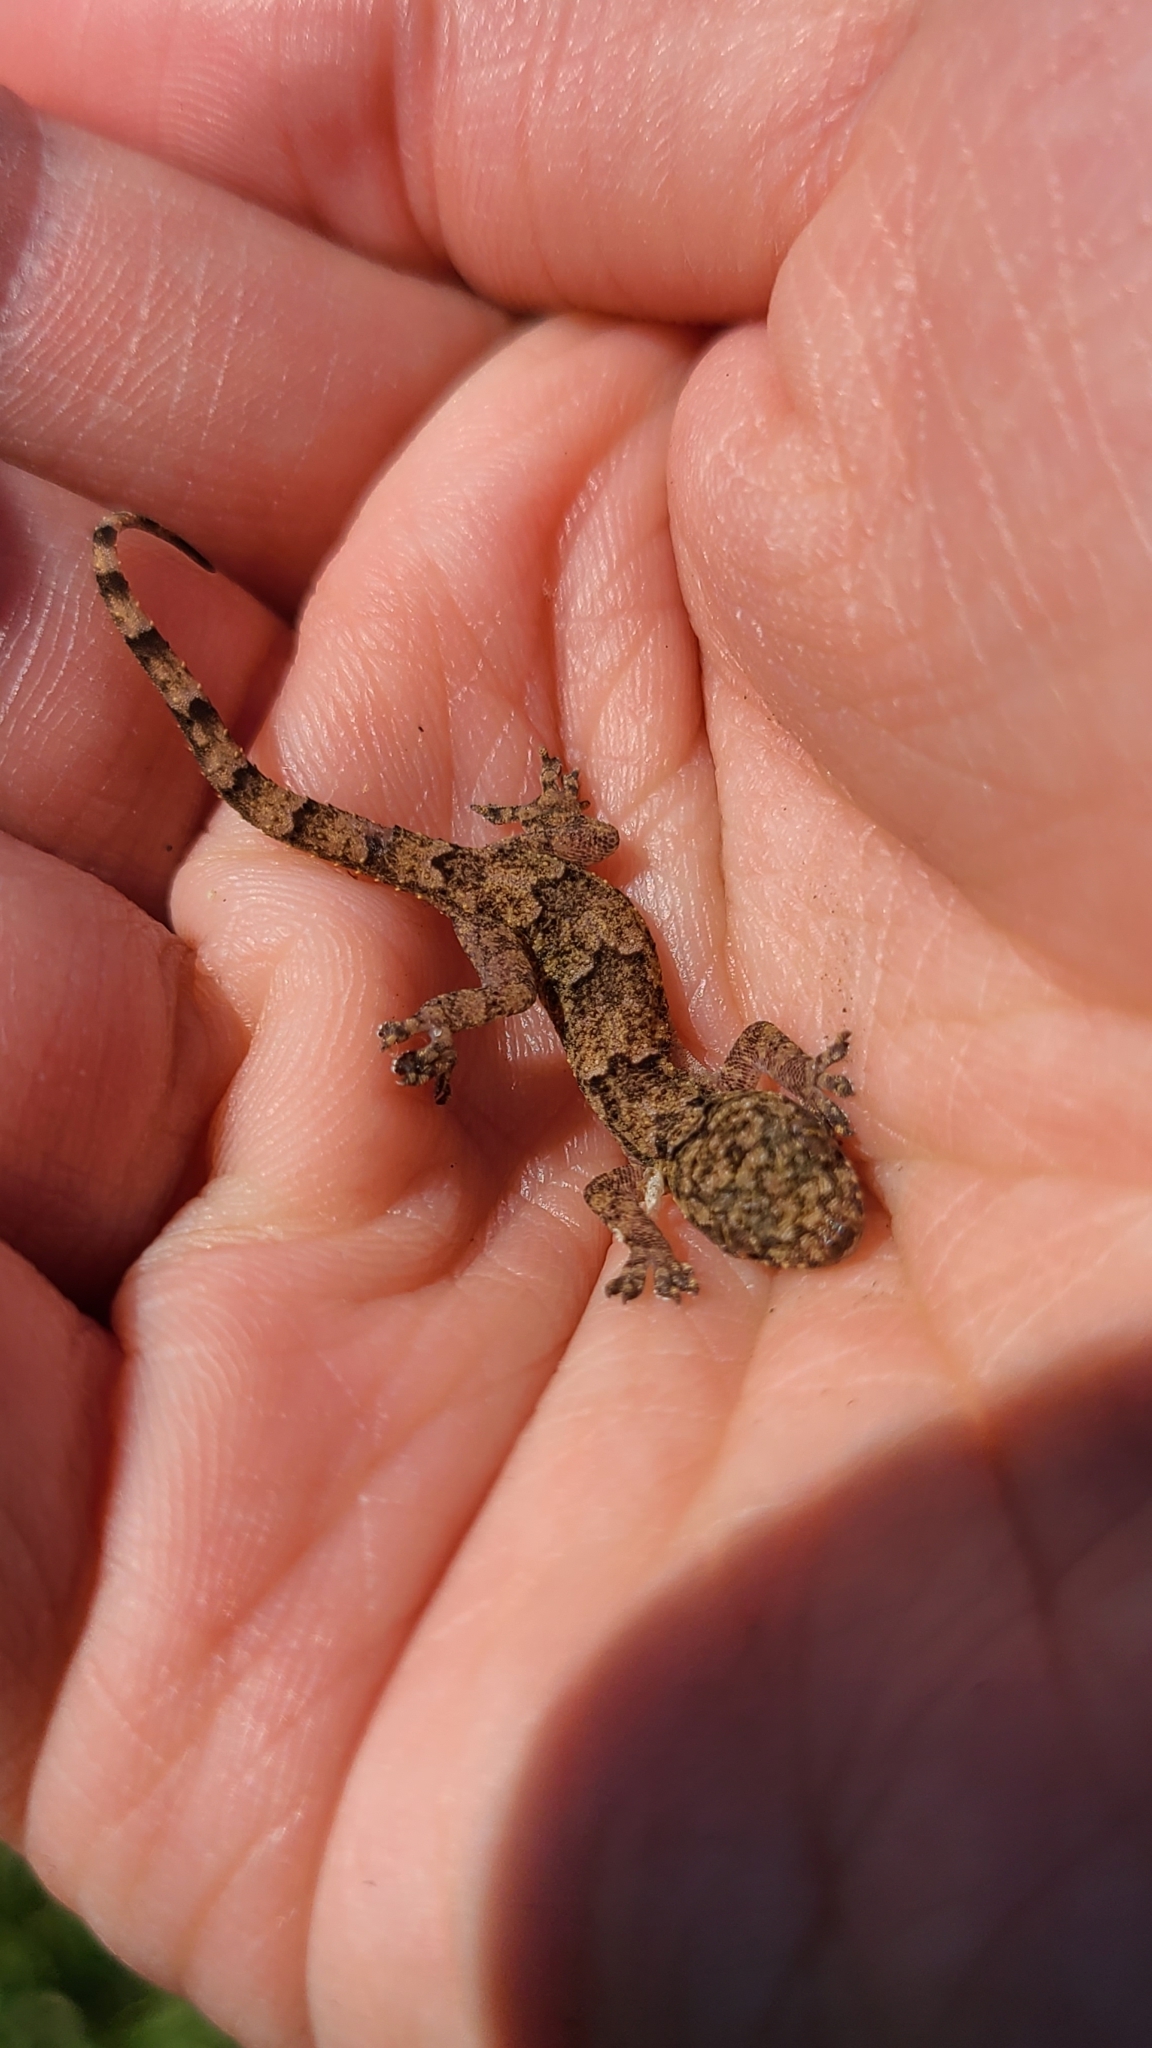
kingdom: Animalia
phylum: Chordata
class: Squamata
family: Gekkonidae
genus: Hemidactylus
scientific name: Hemidactylus mabouia
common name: House gecko
